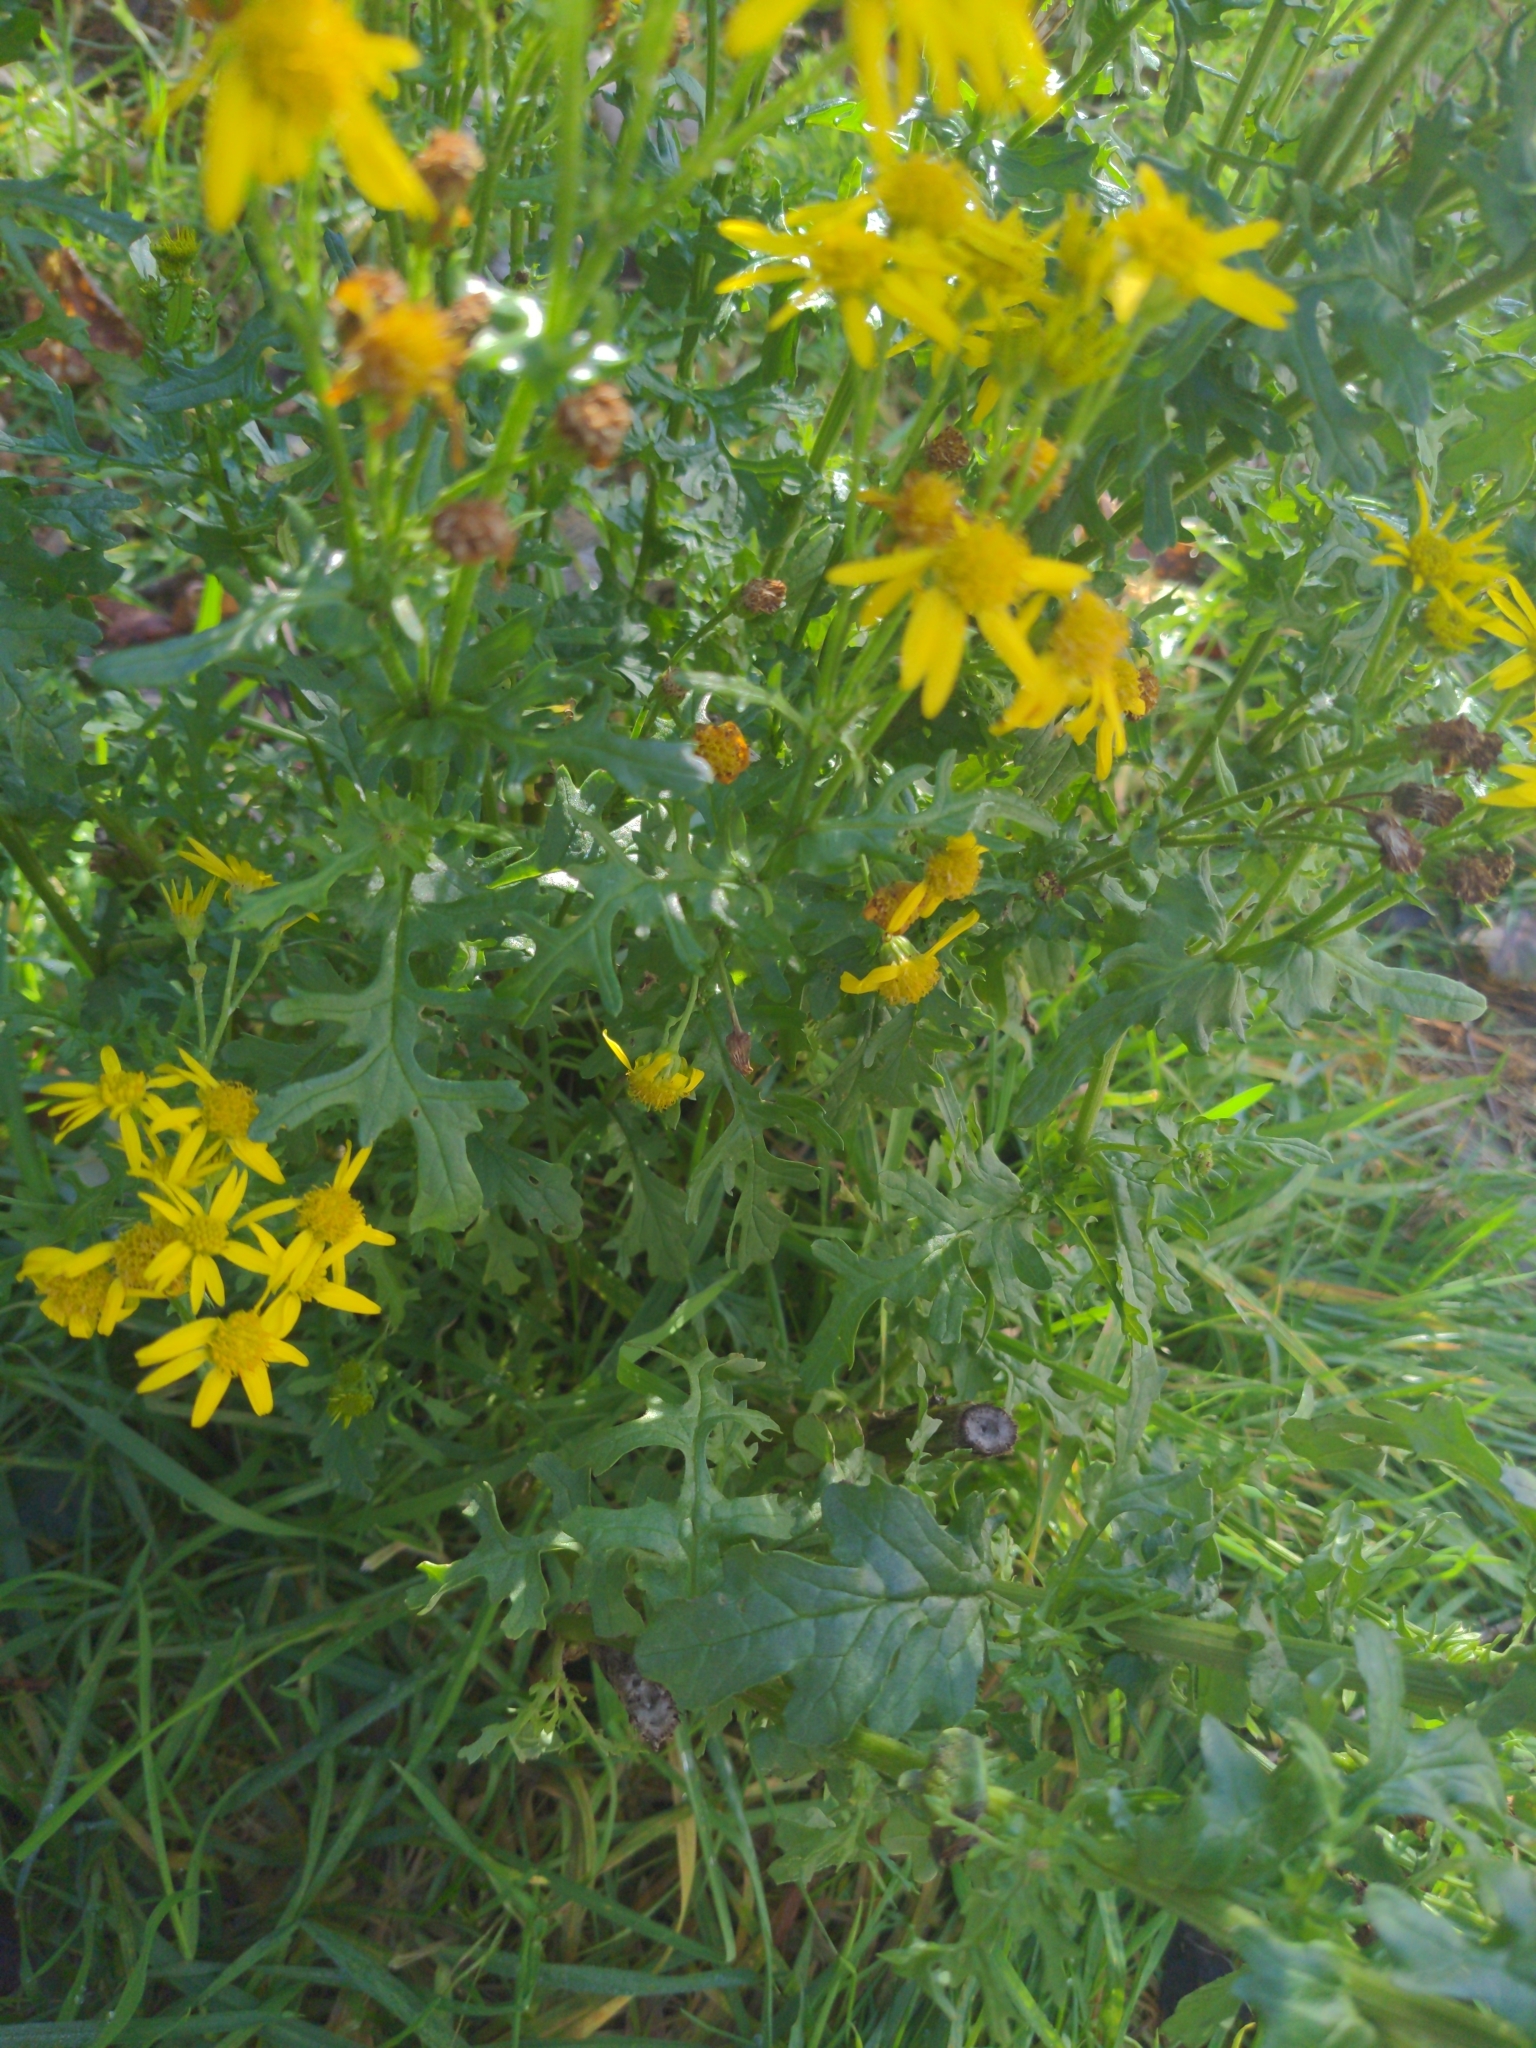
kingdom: Plantae
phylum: Tracheophyta
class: Magnoliopsida
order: Asterales
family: Asteraceae
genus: Jacobaea
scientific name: Jacobaea vulgaris
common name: Stinking willie
